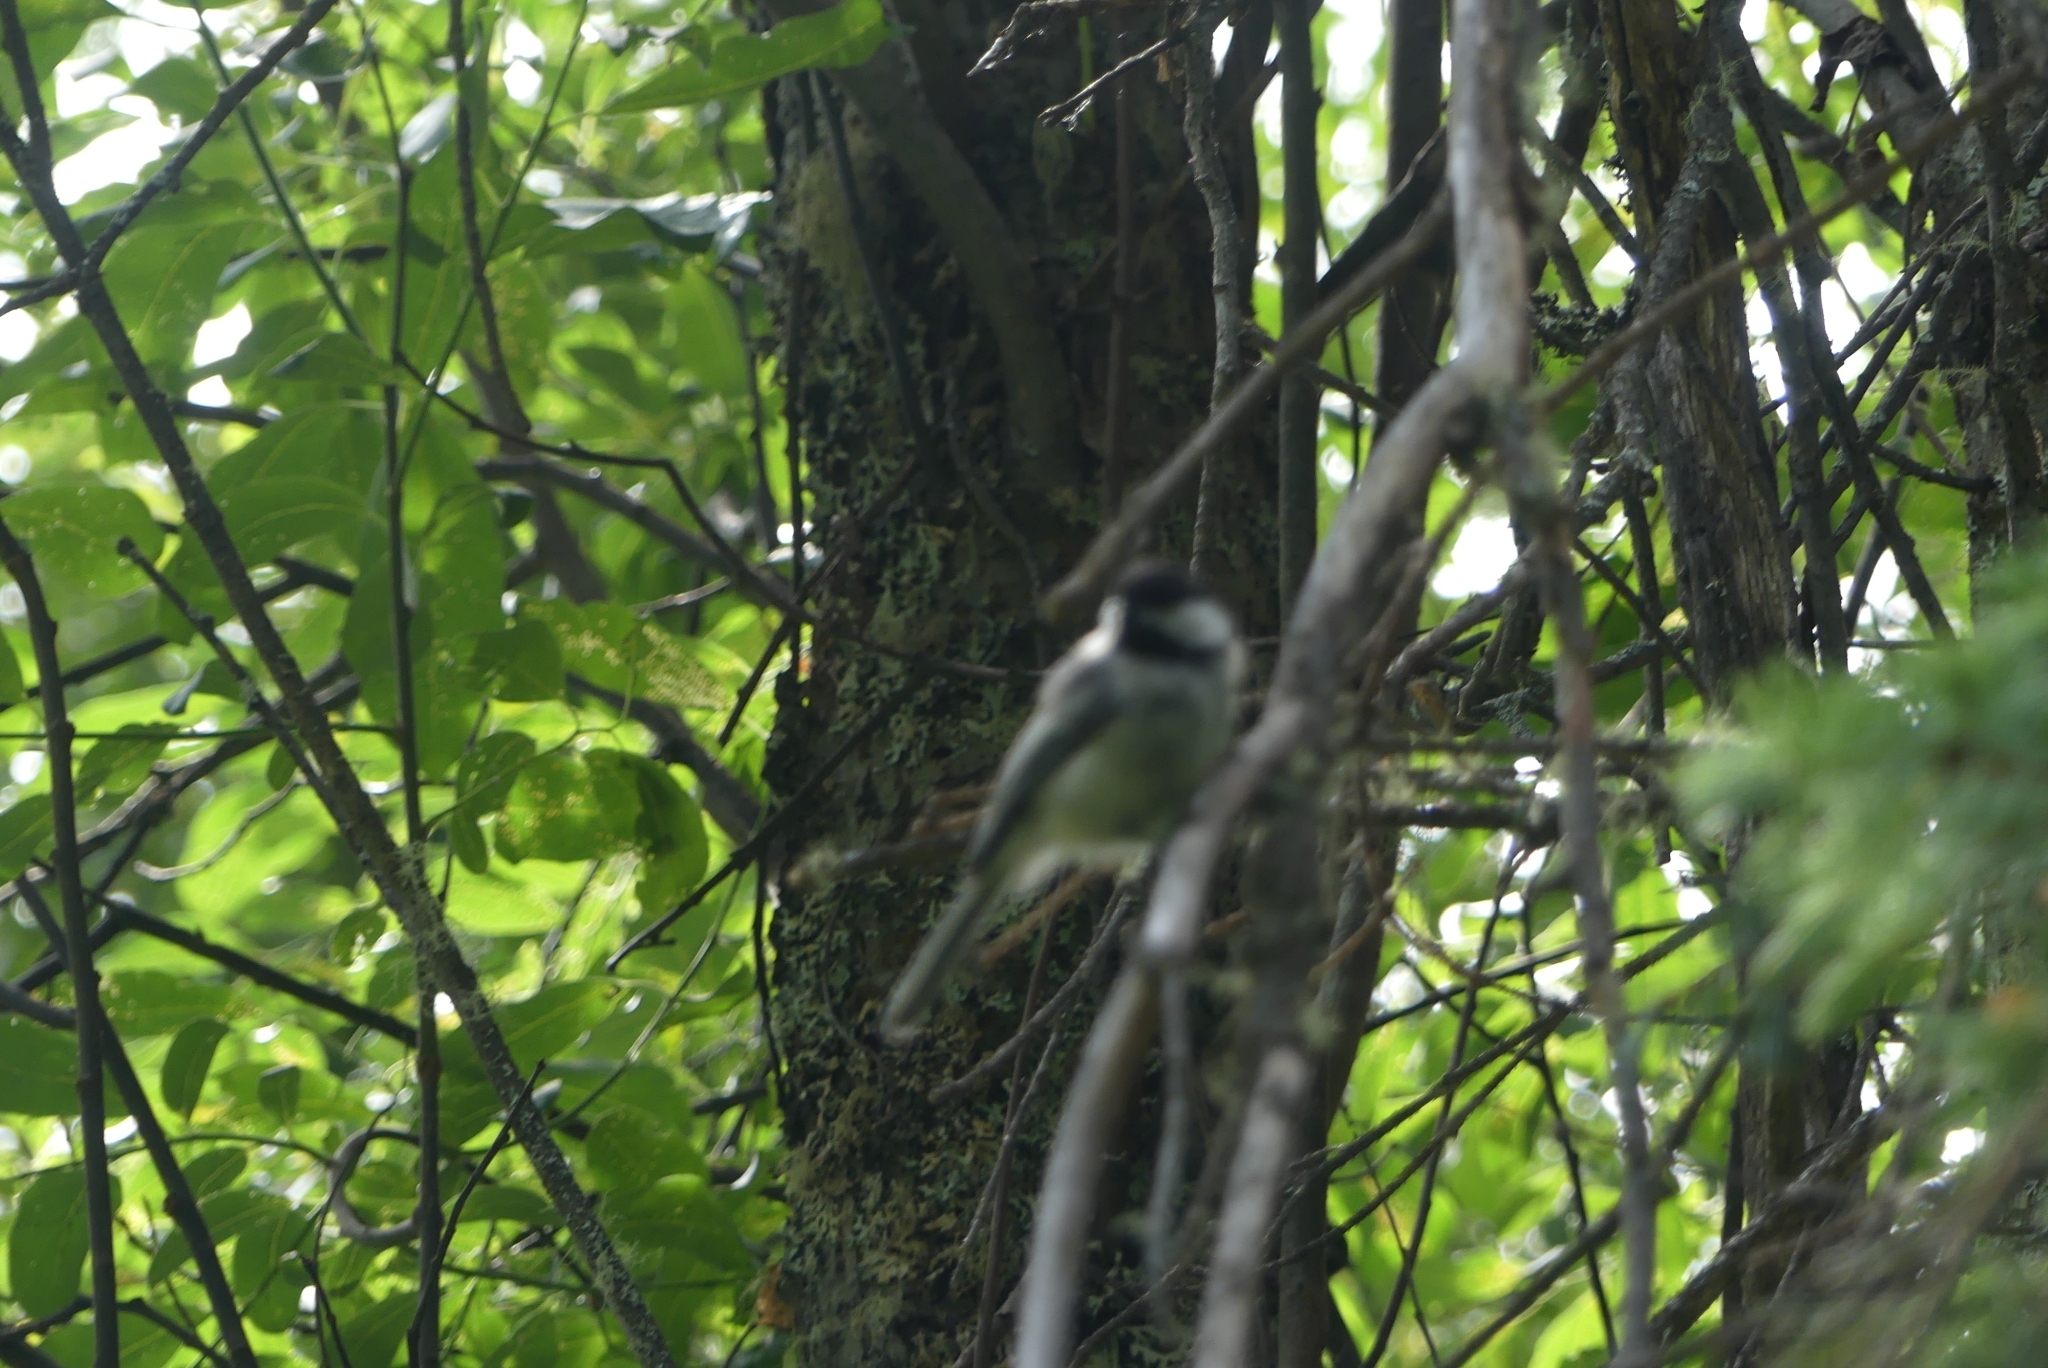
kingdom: Animalia
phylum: Chordata
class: Aves
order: Passeriformes
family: Paridae
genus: Poecile
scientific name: Poecile atricapillus
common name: Black-capped chickadee
